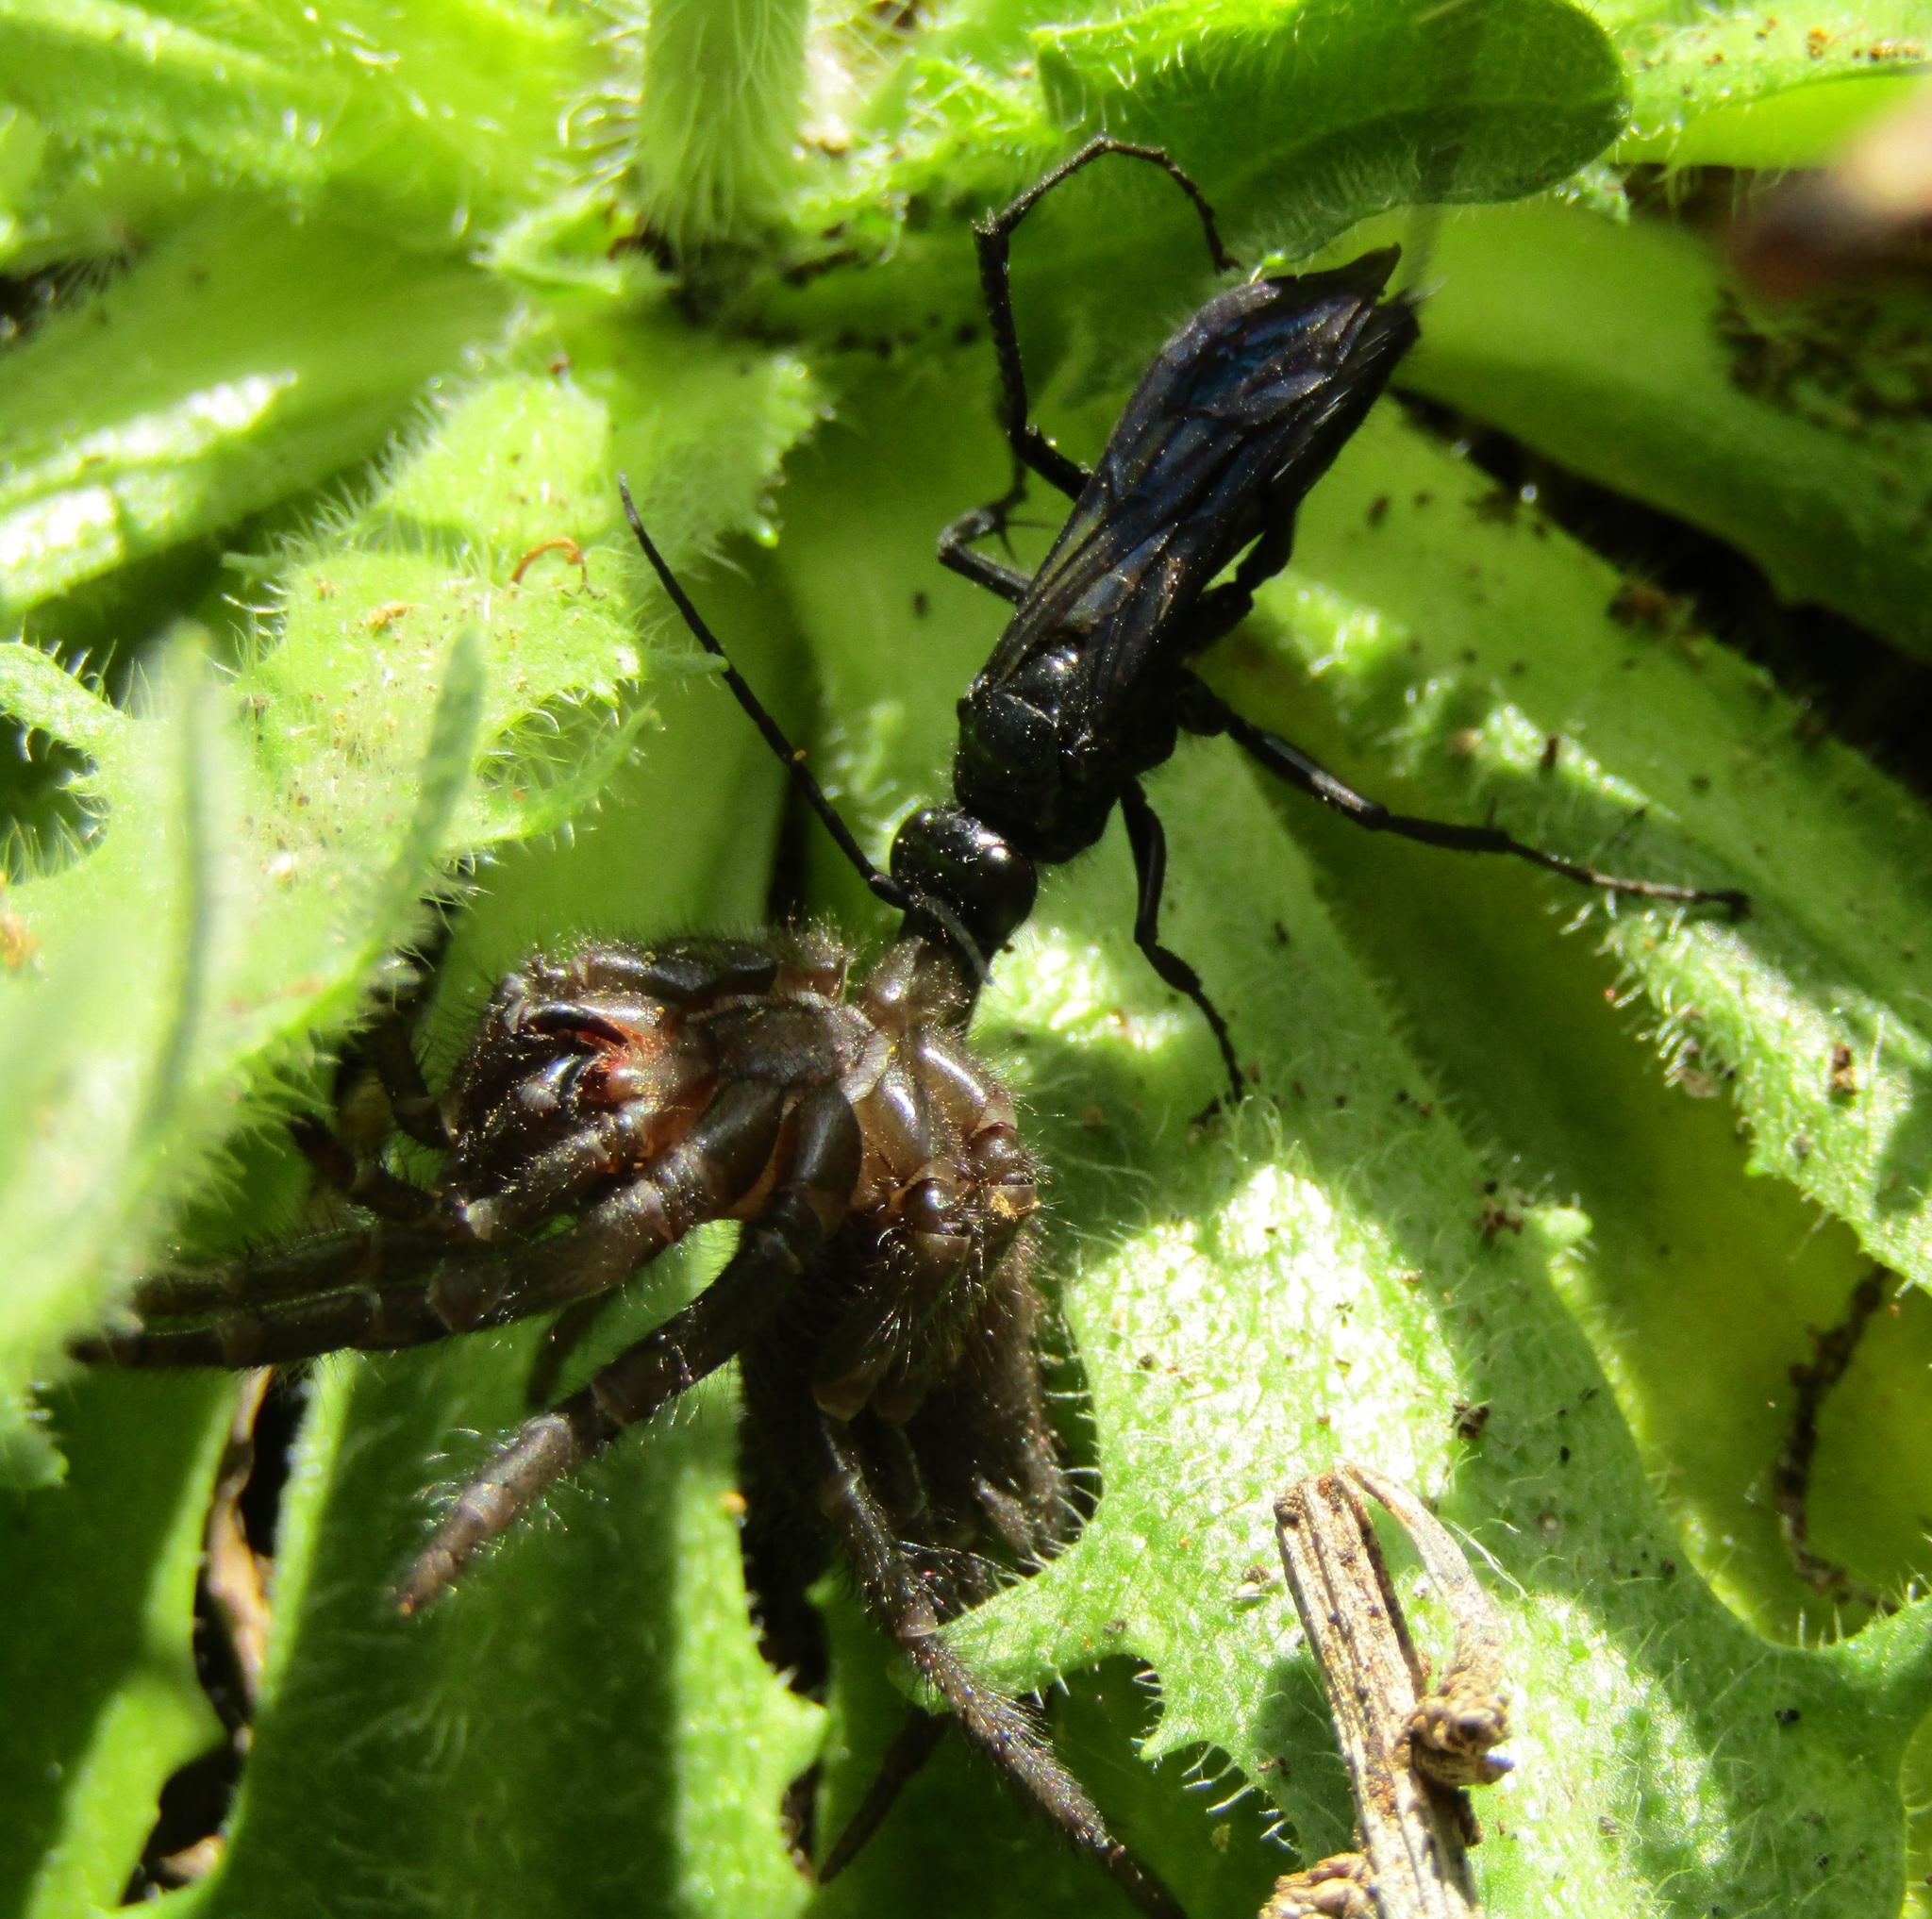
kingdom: Animalia
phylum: Arthropoda
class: Insecta
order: Hymenoptera
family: Pompilidae
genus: Priocnemis
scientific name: Priocnemis monachus
